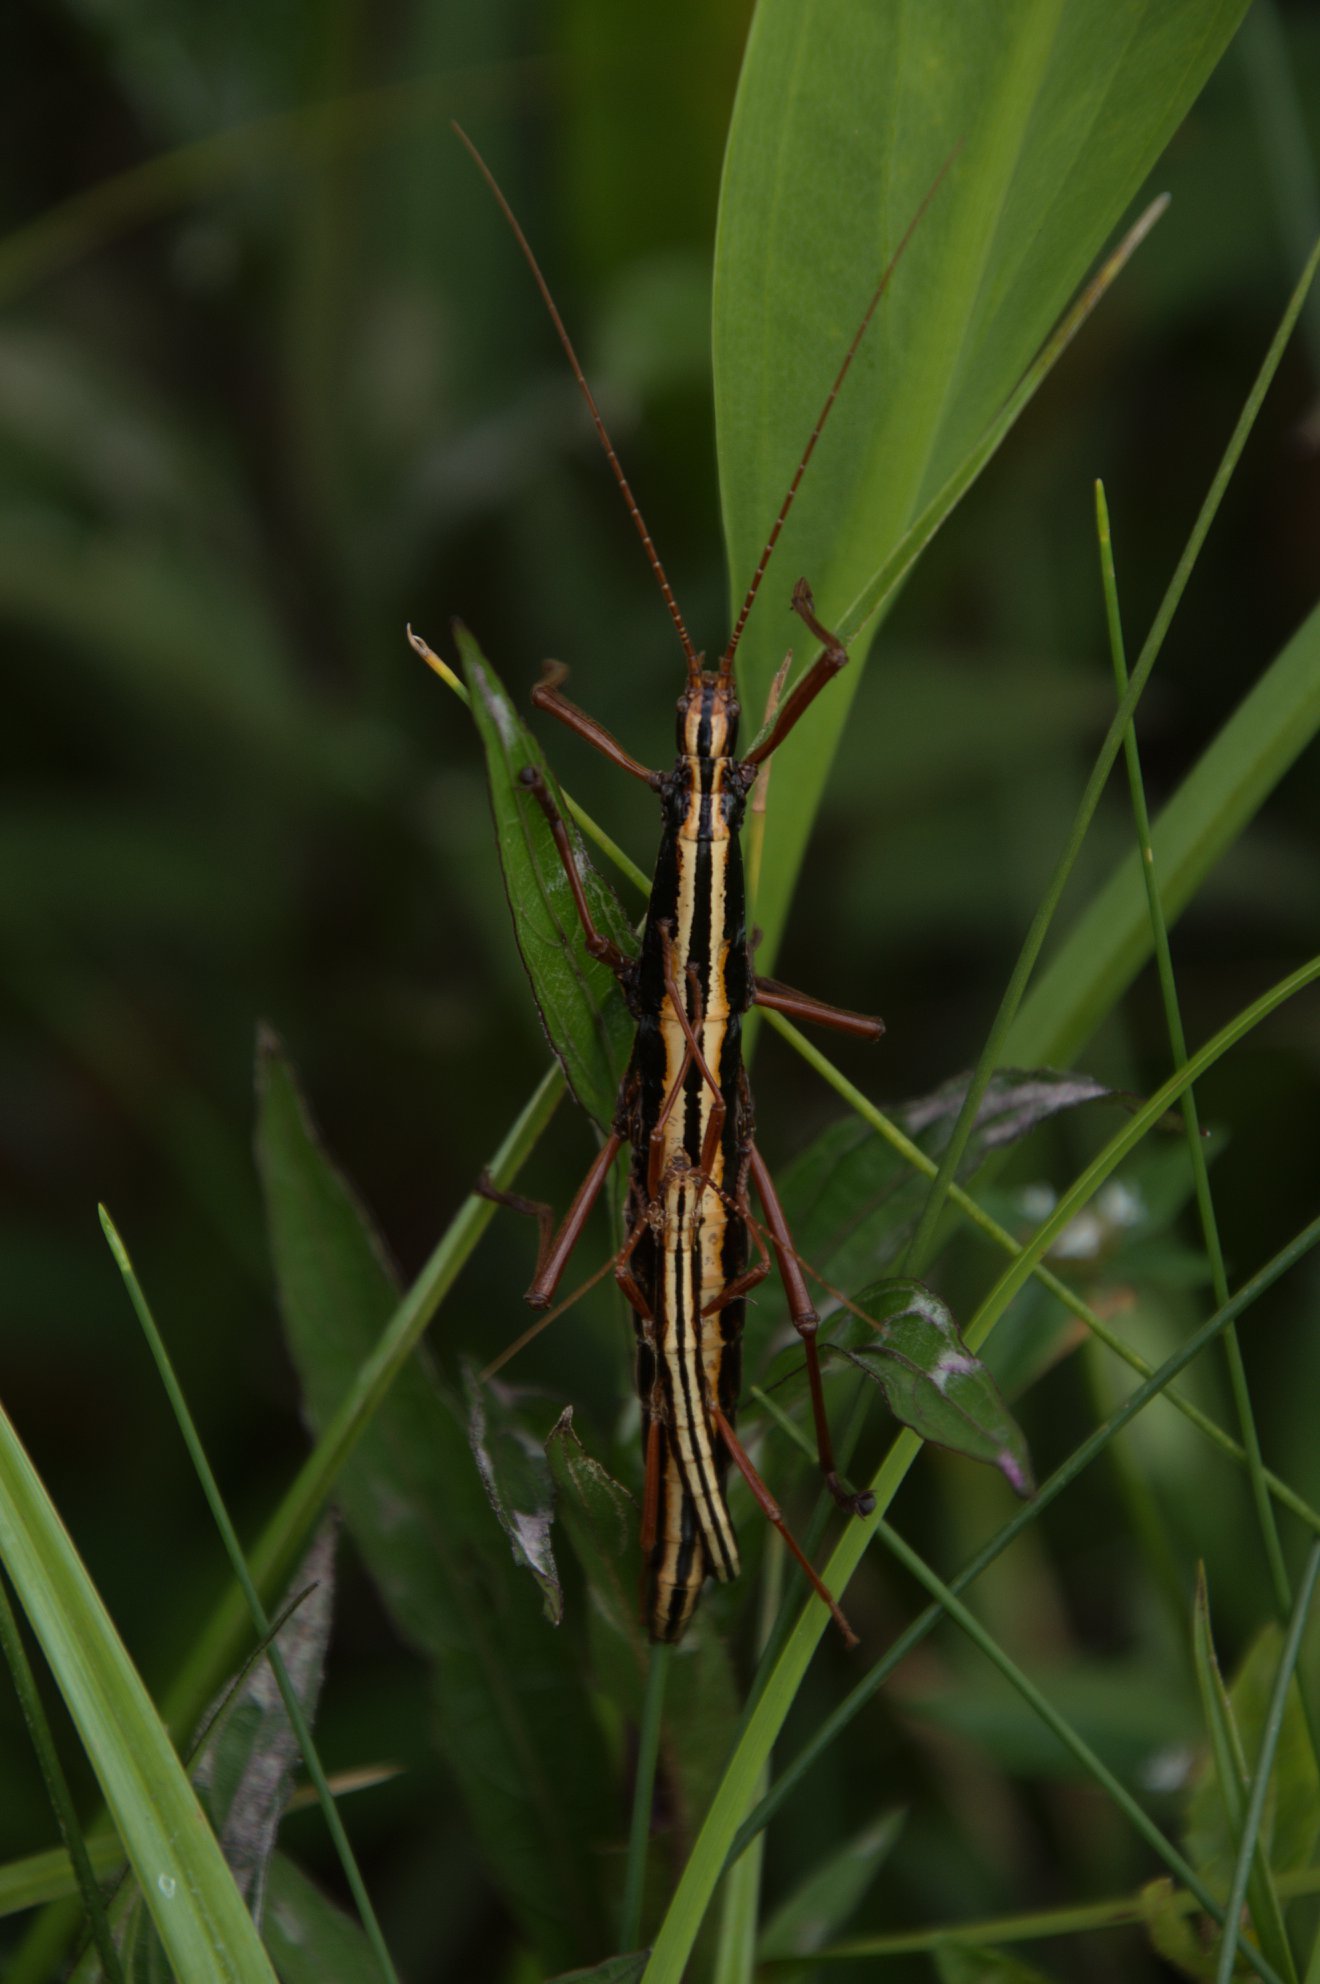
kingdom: Animalia
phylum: Arthropoda
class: Insecta
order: Phasmida
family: Pseudophasmatidae
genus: Anisomorpha
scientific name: Anisomorpha buprestoides
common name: Florida stick insect
